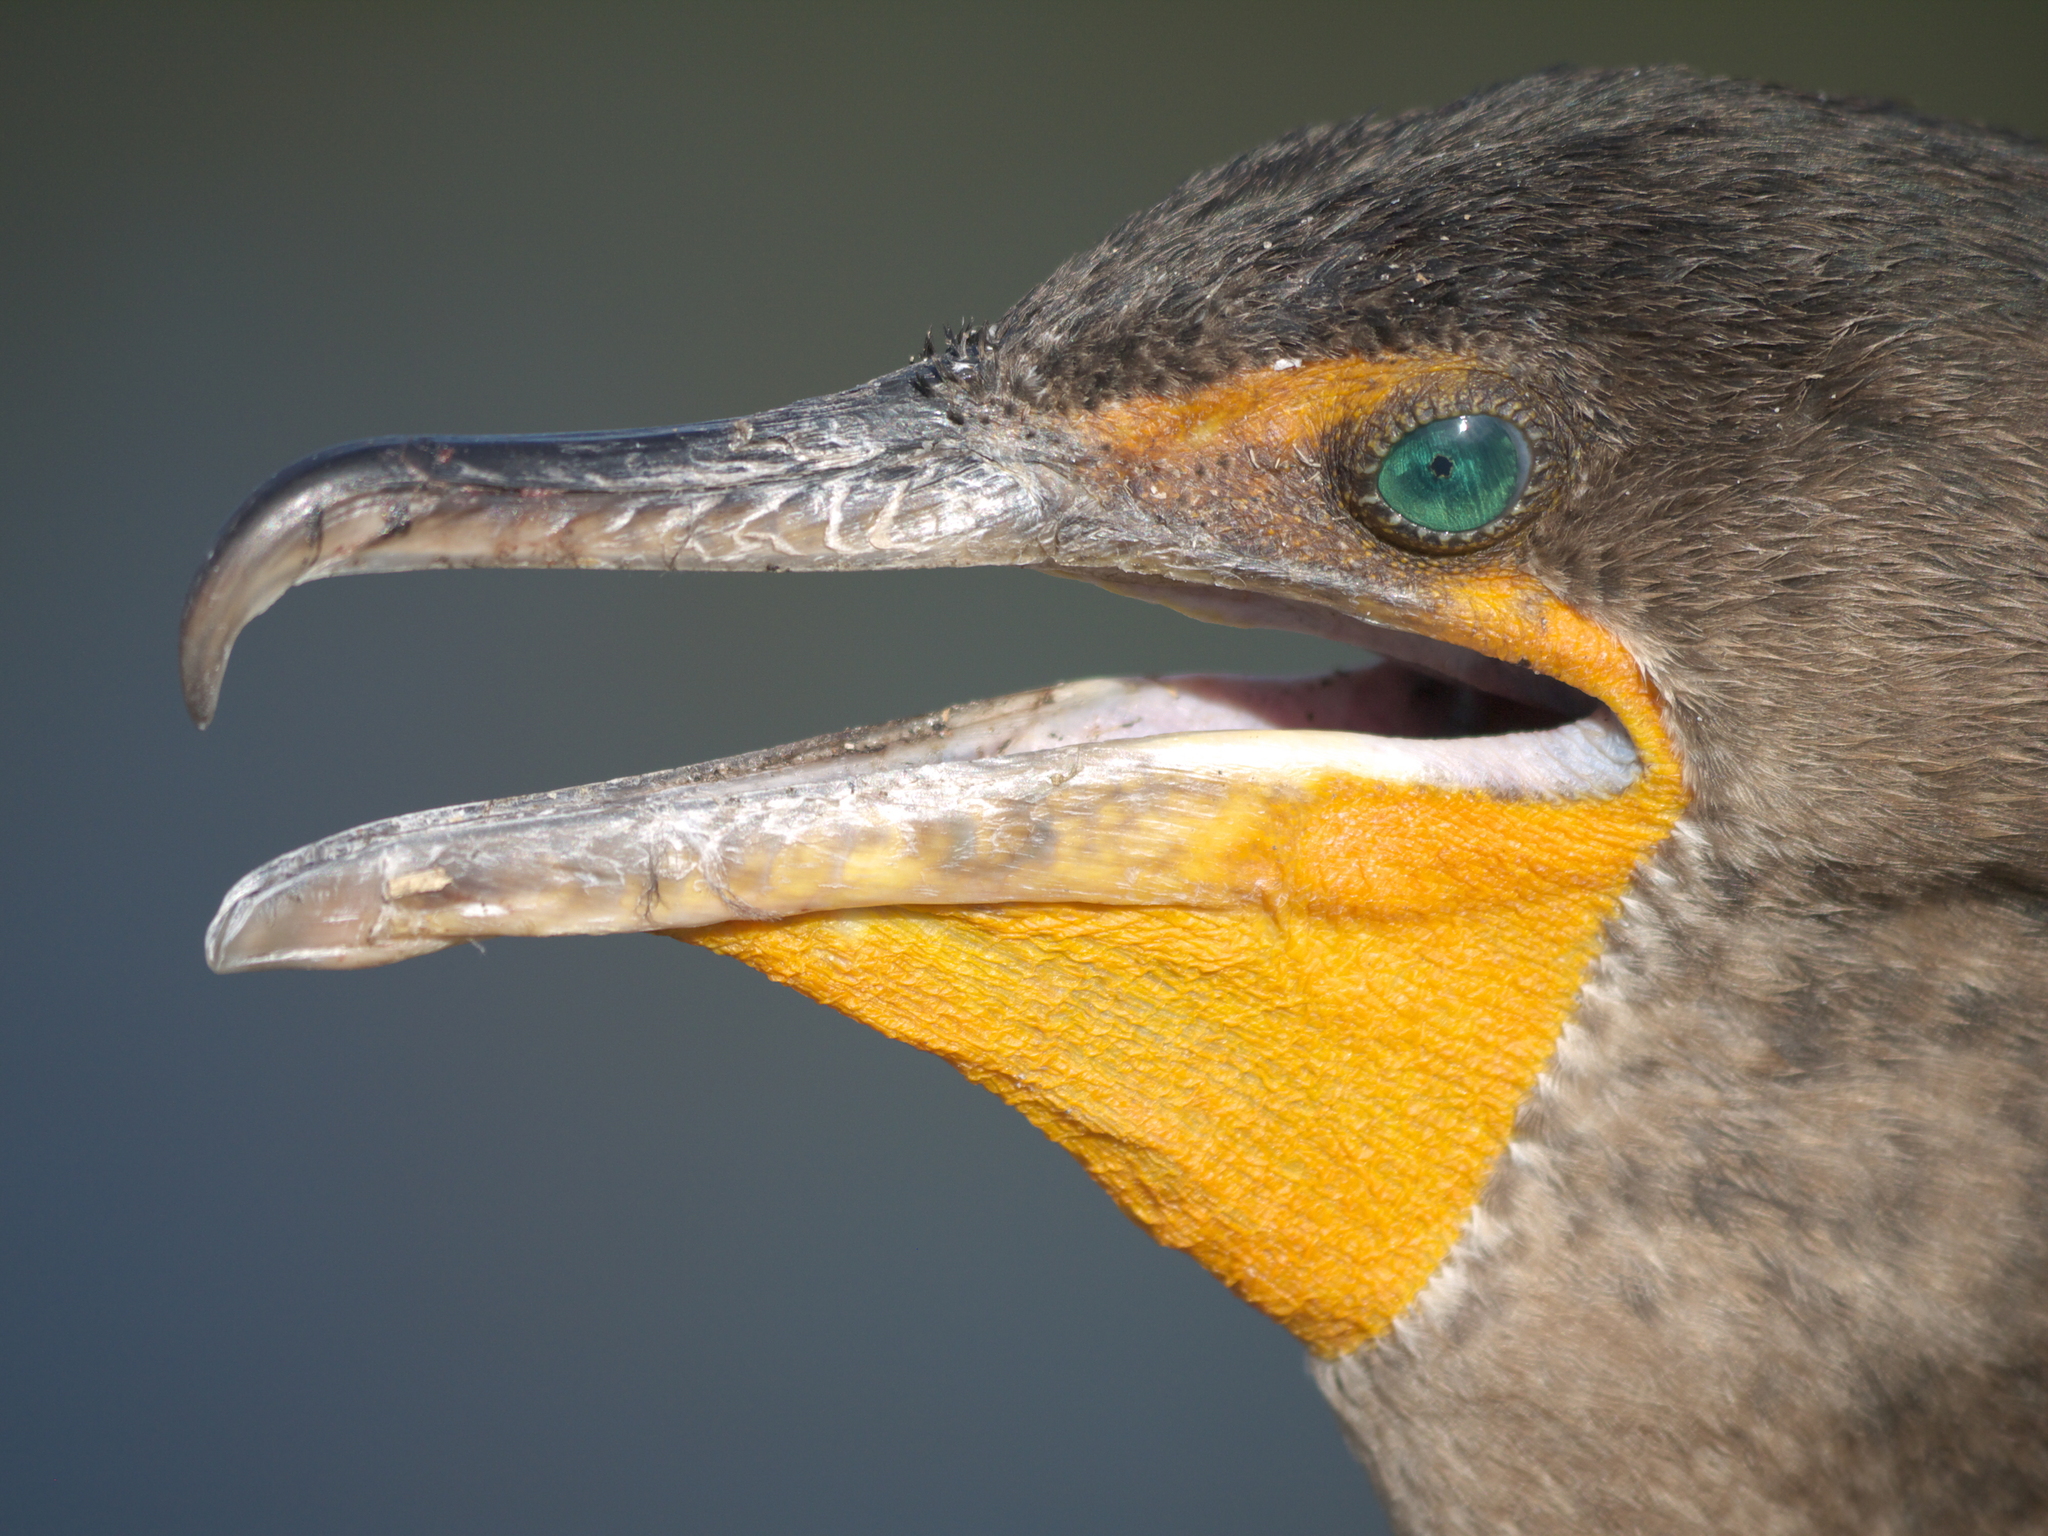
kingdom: Animalia
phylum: Chordata
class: Aves
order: Suliformes
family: Phalacrocoracidae
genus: Phalacrocorax
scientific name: Phalacrocorax auritus
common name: Double-crested cormorant
